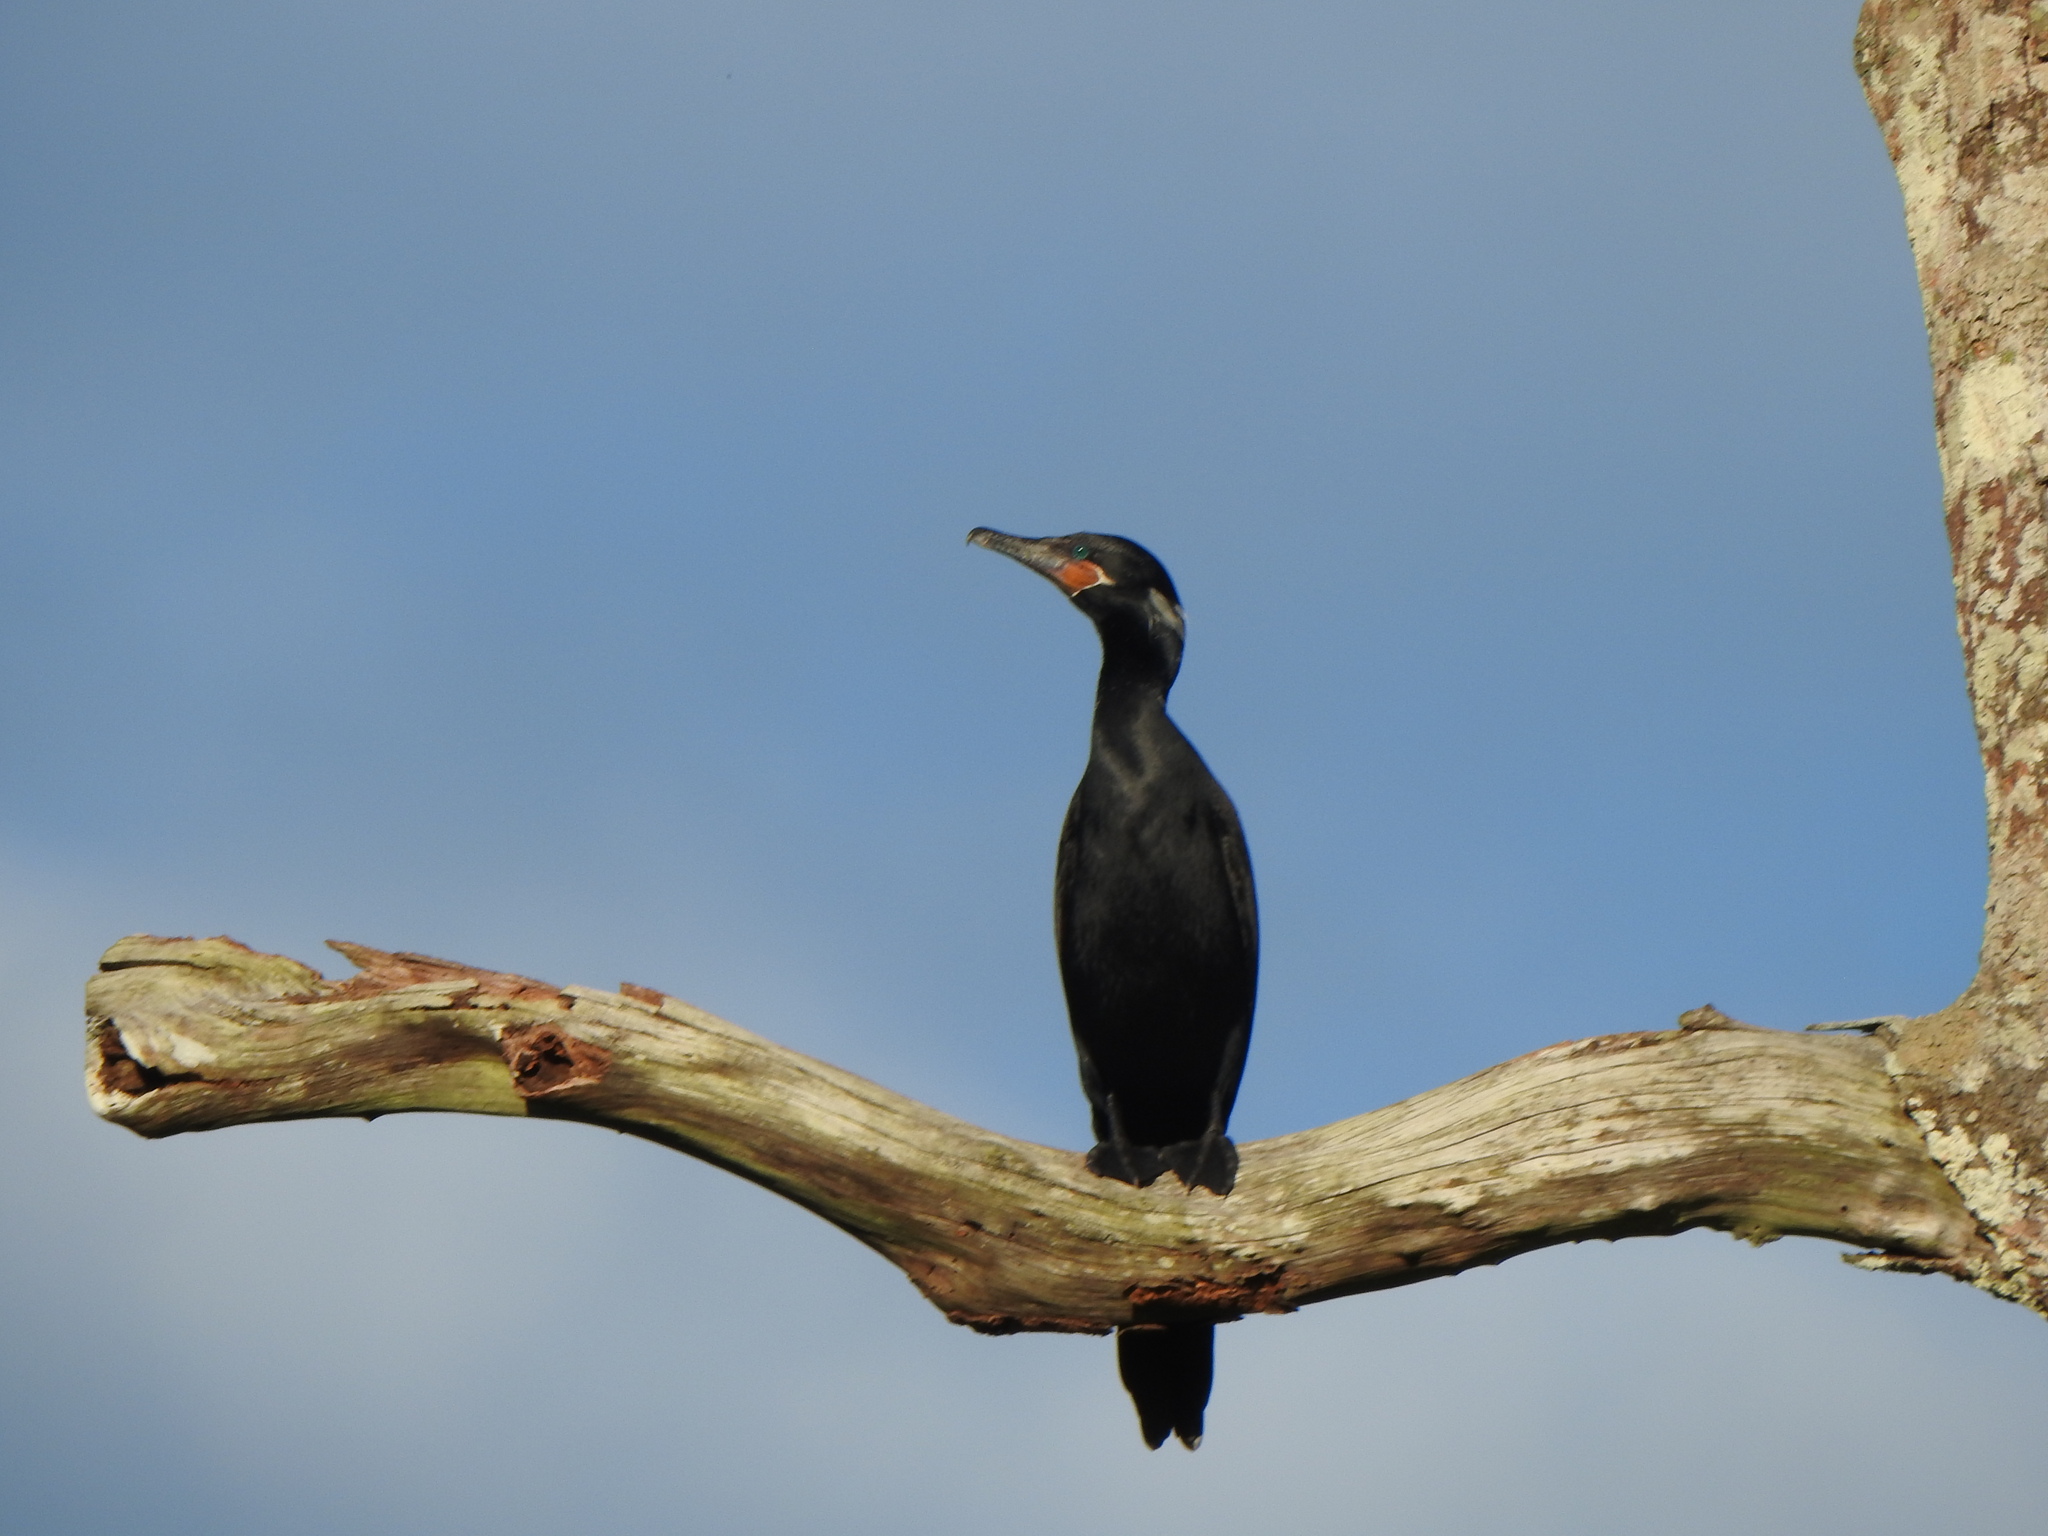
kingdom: Animalia
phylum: Chordata
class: Aves
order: Suliformes
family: Phalacrocoracidae
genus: Phalacrocorax
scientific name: Phalacrocorax brasilianus
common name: Neotropic cormorant
